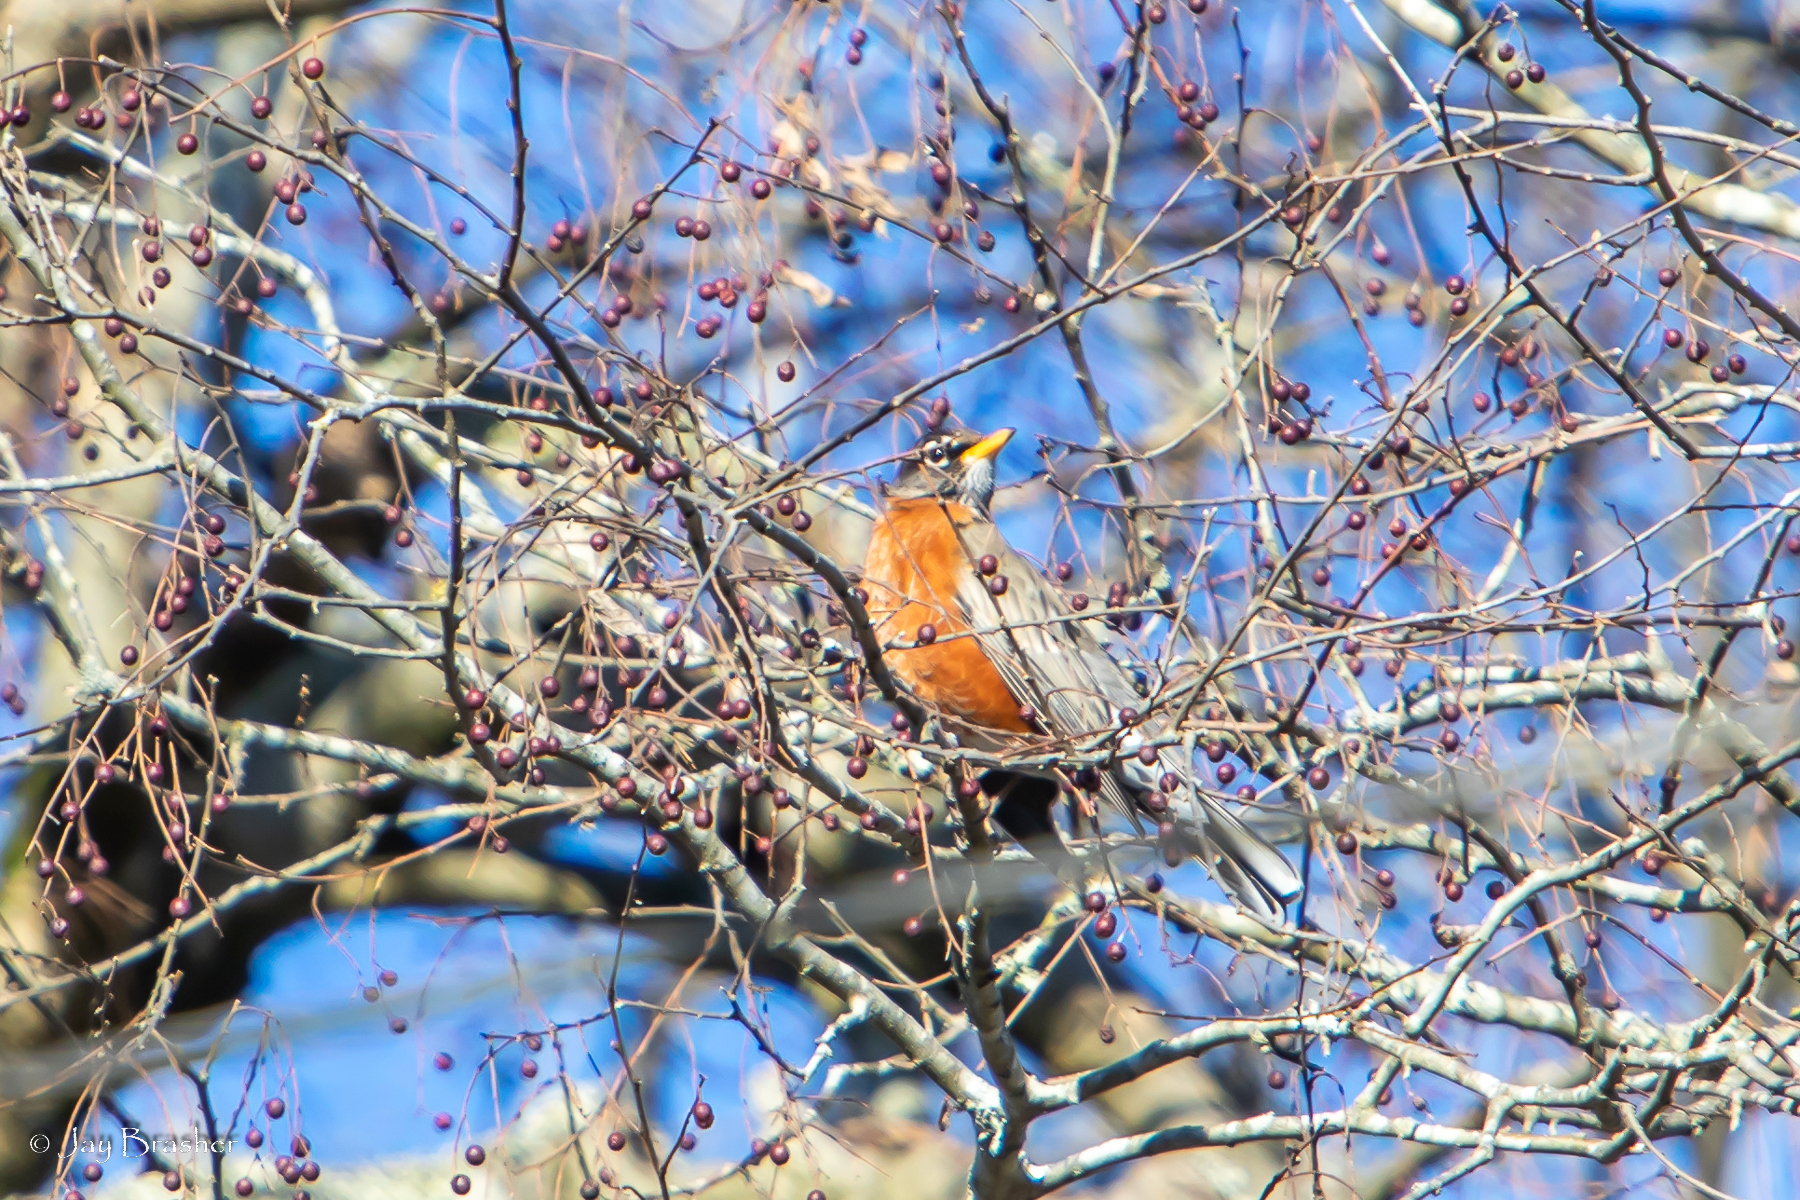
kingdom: Animalia
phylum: Chordata
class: Aves
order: Passeriformes
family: Turdidae
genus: Turdus
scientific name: Turdus migratorius
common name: American robin
